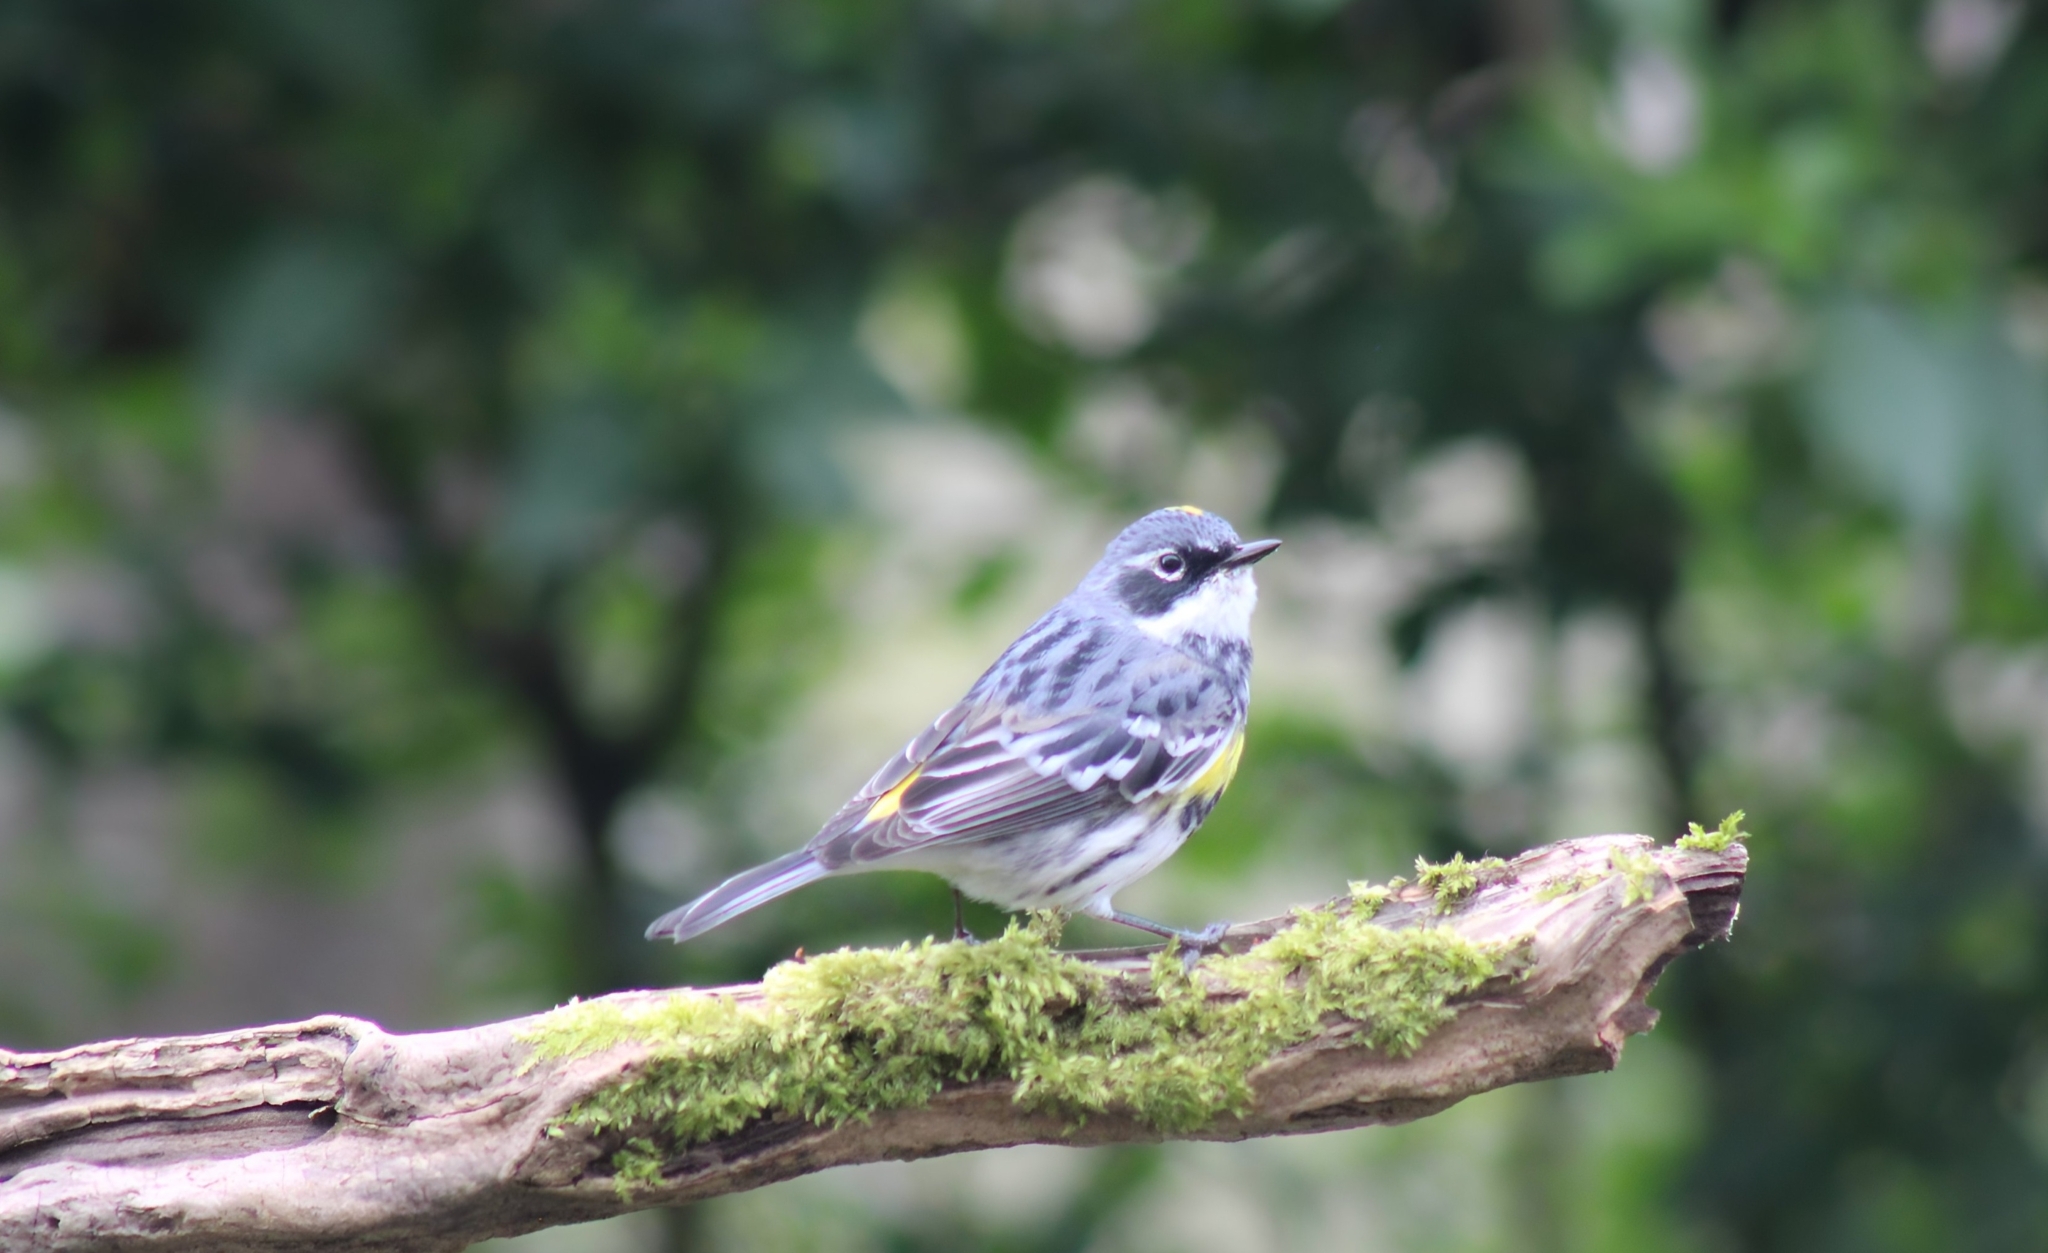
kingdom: Animalia
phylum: Chordata
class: Aves
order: Passeriformes
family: Parulidae
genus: Setophaga
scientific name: Setophaga coronata
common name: Myrtle warbler
